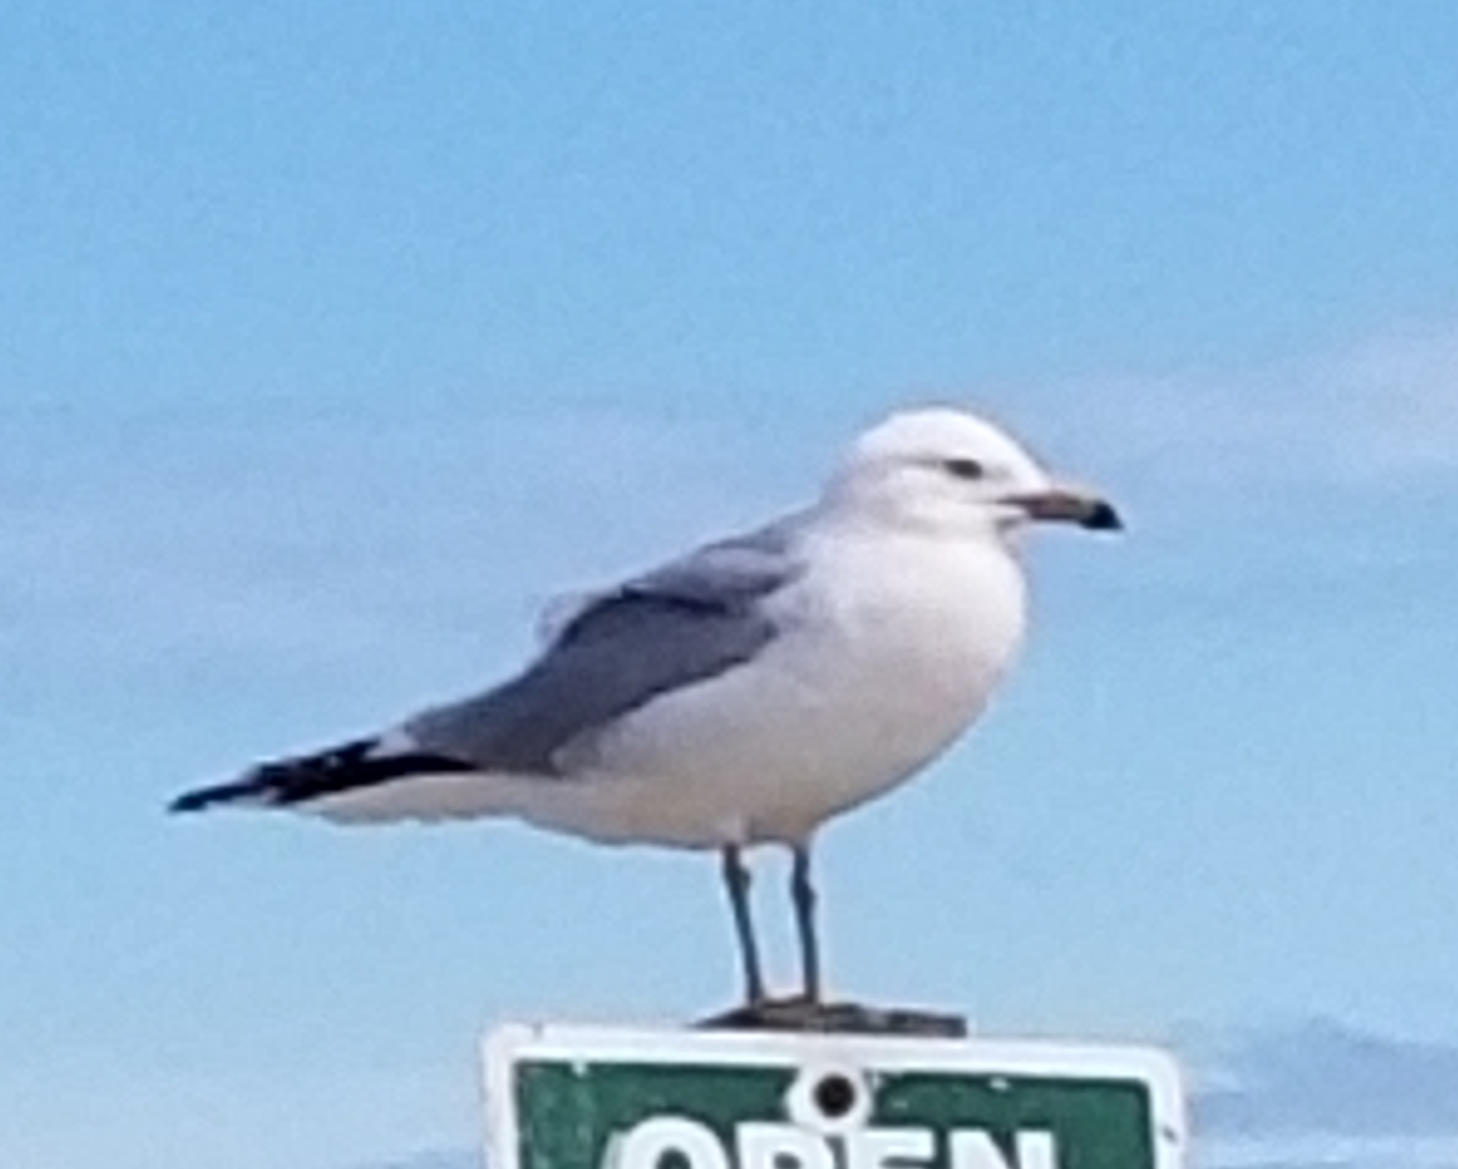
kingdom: Animalia
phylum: Chordata
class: Aves
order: Charadriiformes
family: Laridae
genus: Larus
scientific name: Larus delawarensis
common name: Ring-billed gull
